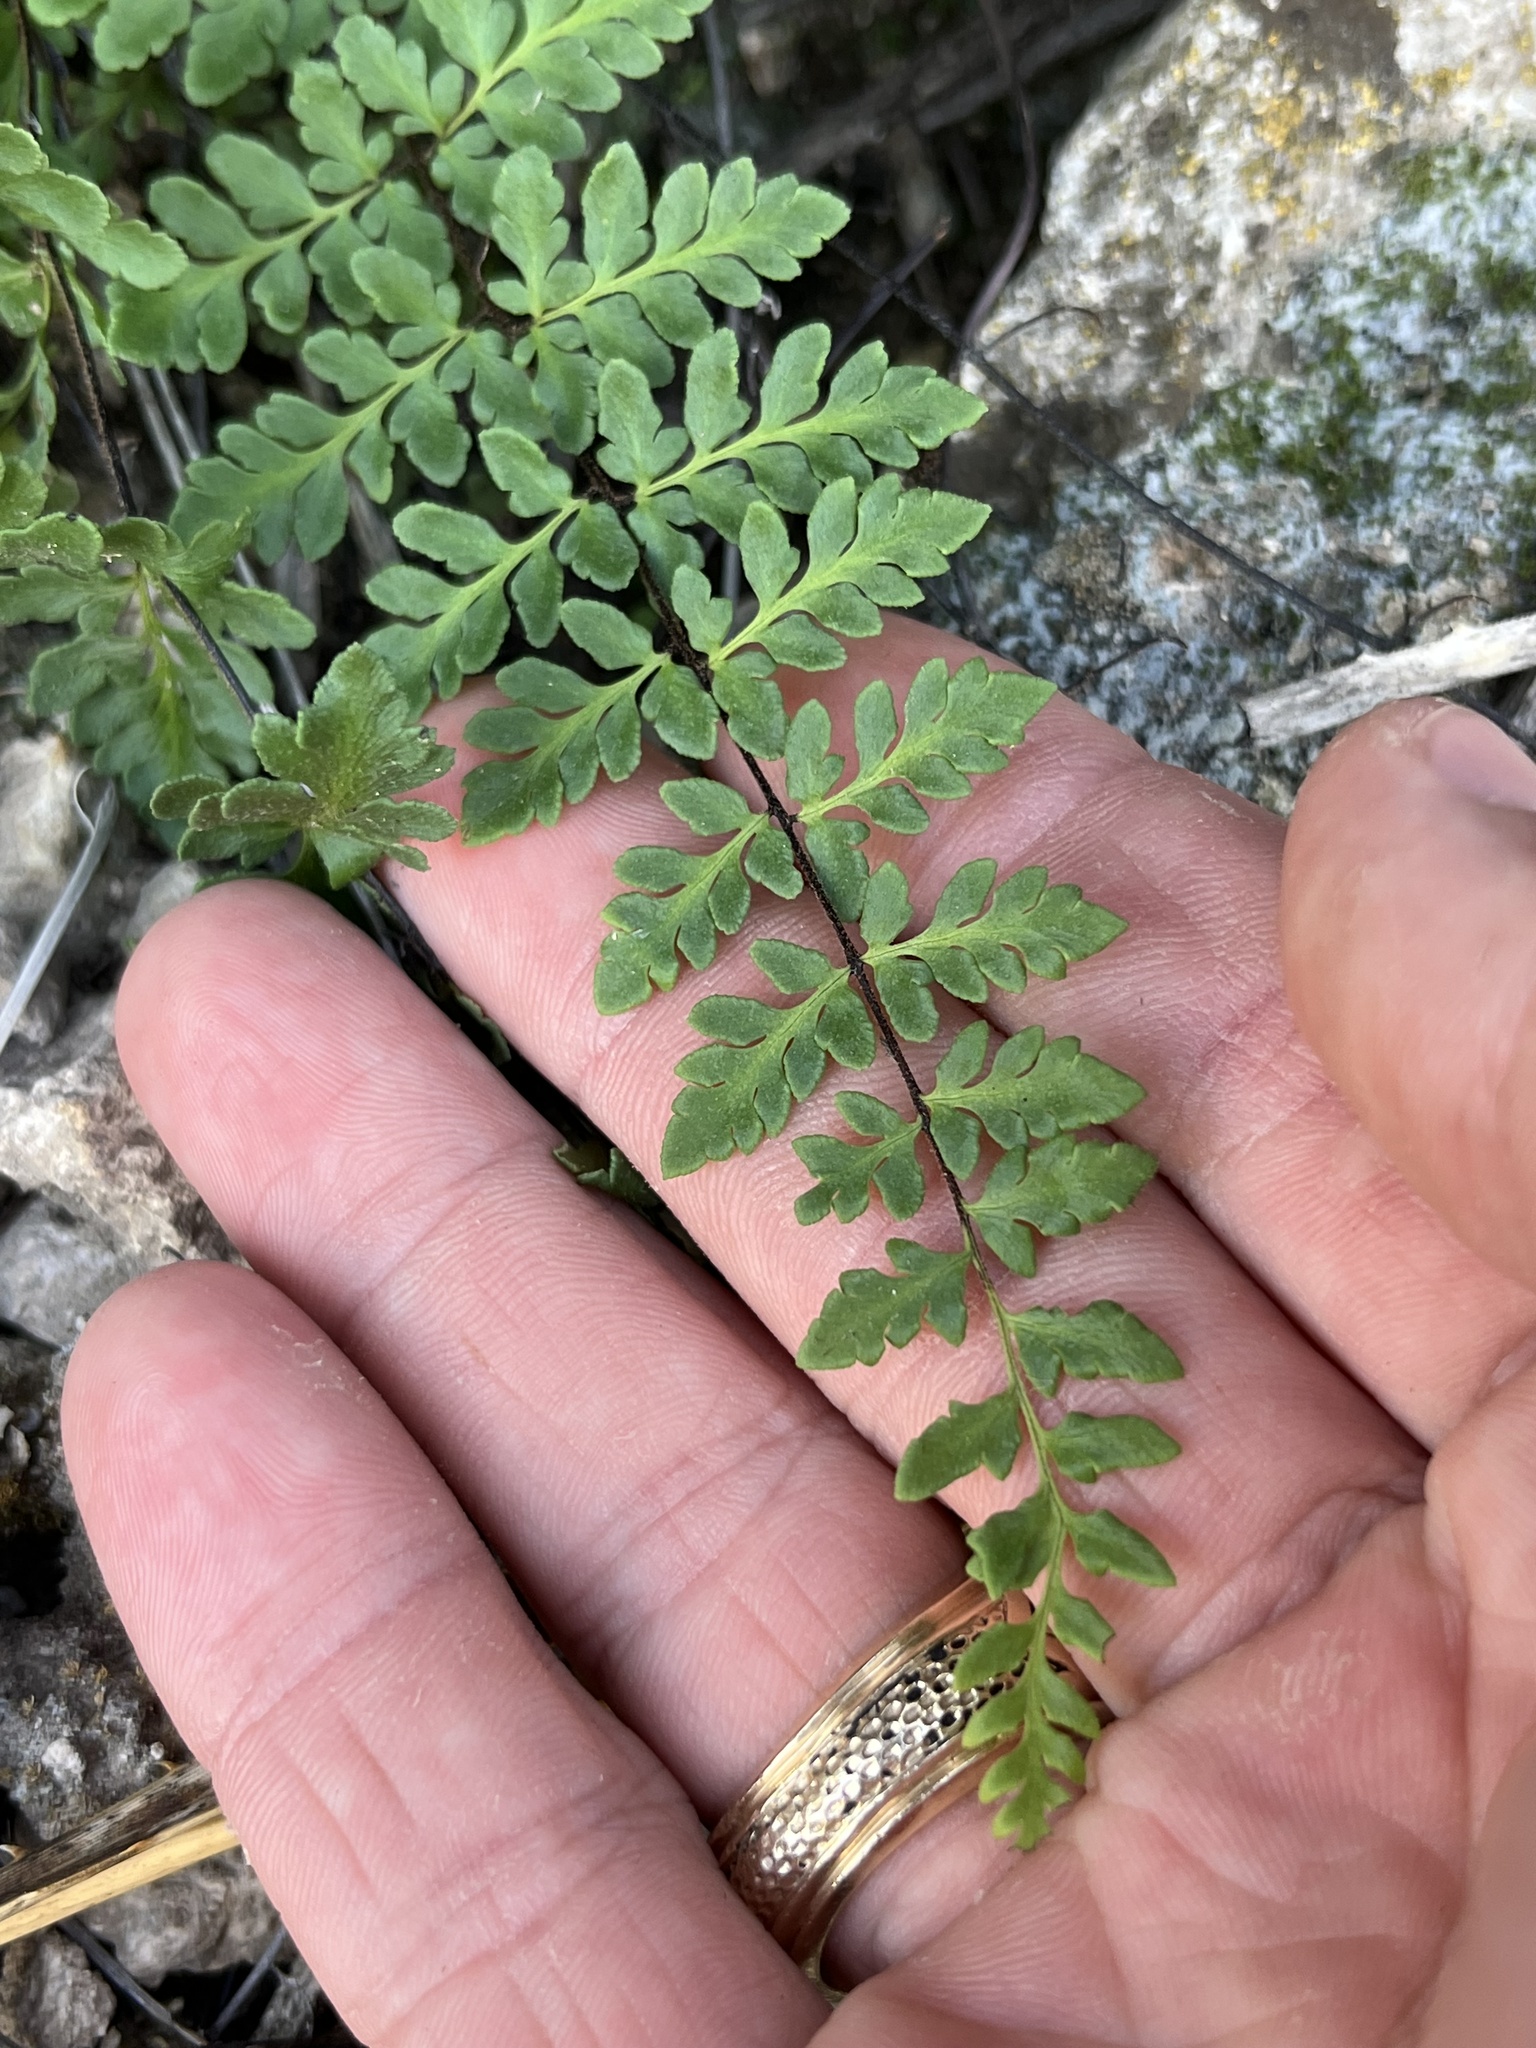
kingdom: Plantae
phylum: Tracheophyta
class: Polypodiopsida
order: Polypodiales
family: Pteridaceae
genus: Myriopteris
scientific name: Myriopteris alabamensis
